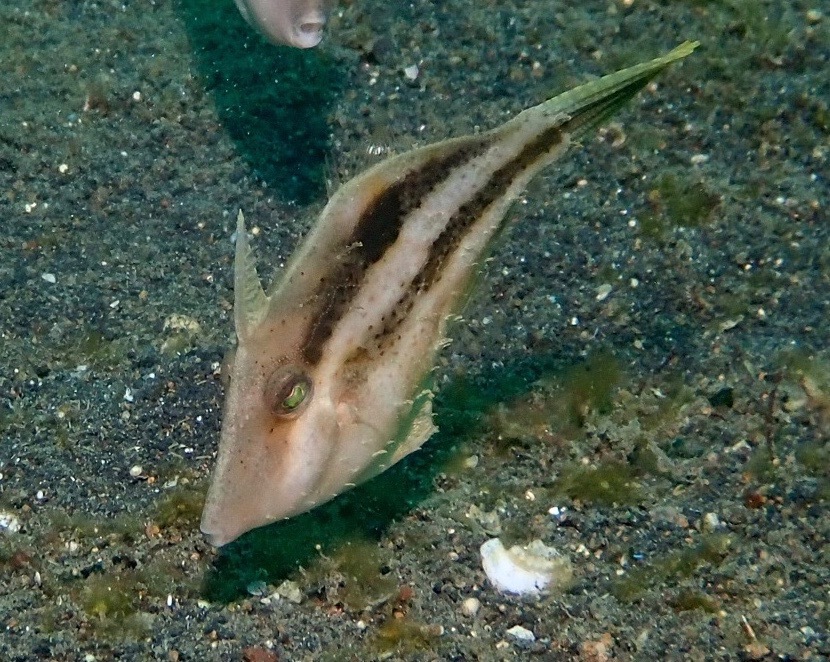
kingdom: Animalia
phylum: Chordata
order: Tetraodontiformes
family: Monacanthidae
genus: Paramonacanthus
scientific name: Paramonacanthus curtorhynchos
